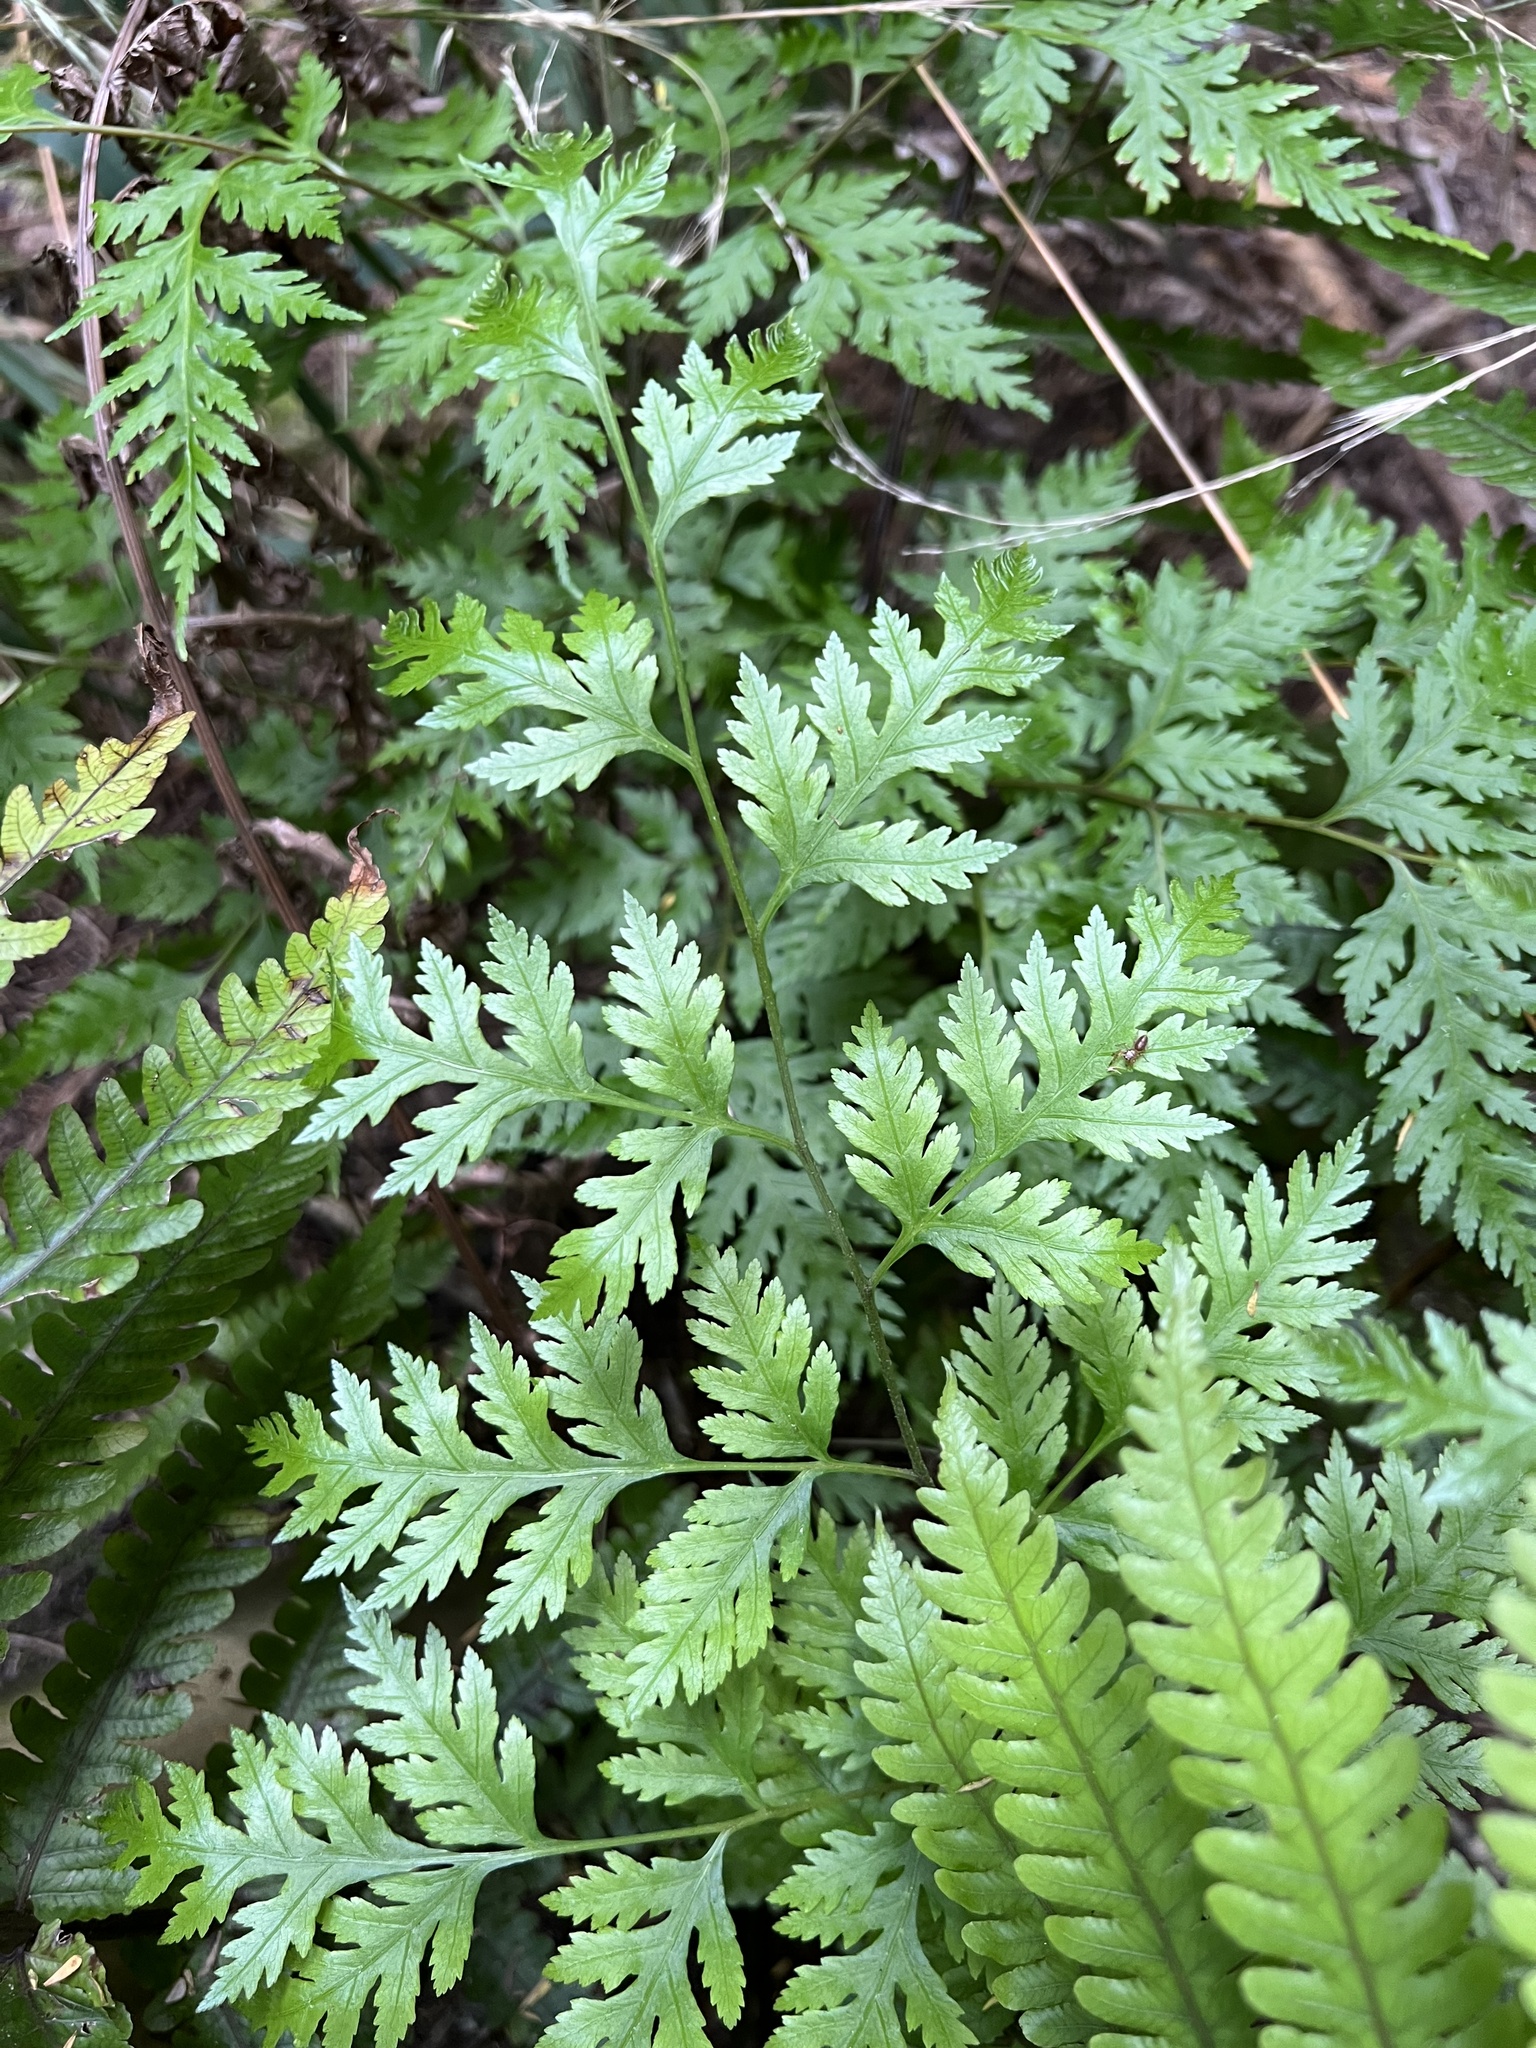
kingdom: Plantae
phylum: Tracheophyta
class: Polypodiopsida
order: Polypodiales
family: Pteridaceae
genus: Pteris
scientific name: Pteris macilenta
